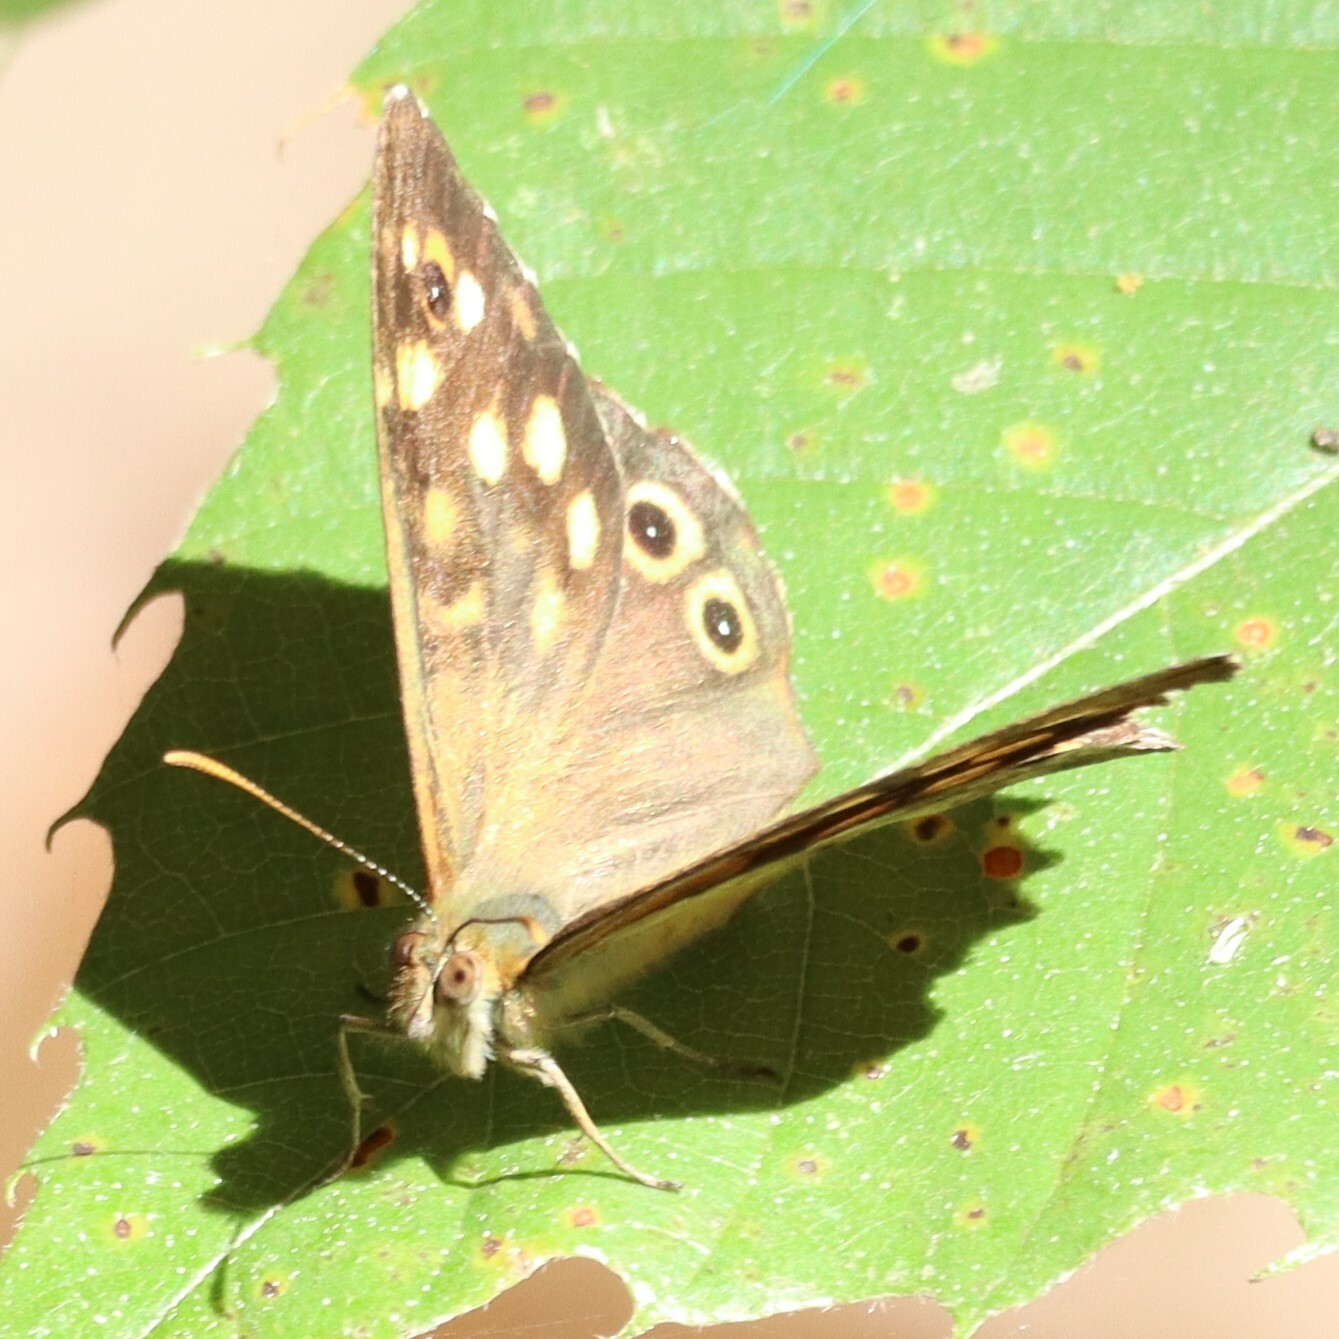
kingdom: Animalia
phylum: Arthropoda
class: Insecta
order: Lepidoptera
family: Nymphalidae
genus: Pararge
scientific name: Pararge aegeria
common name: Speckled wood
